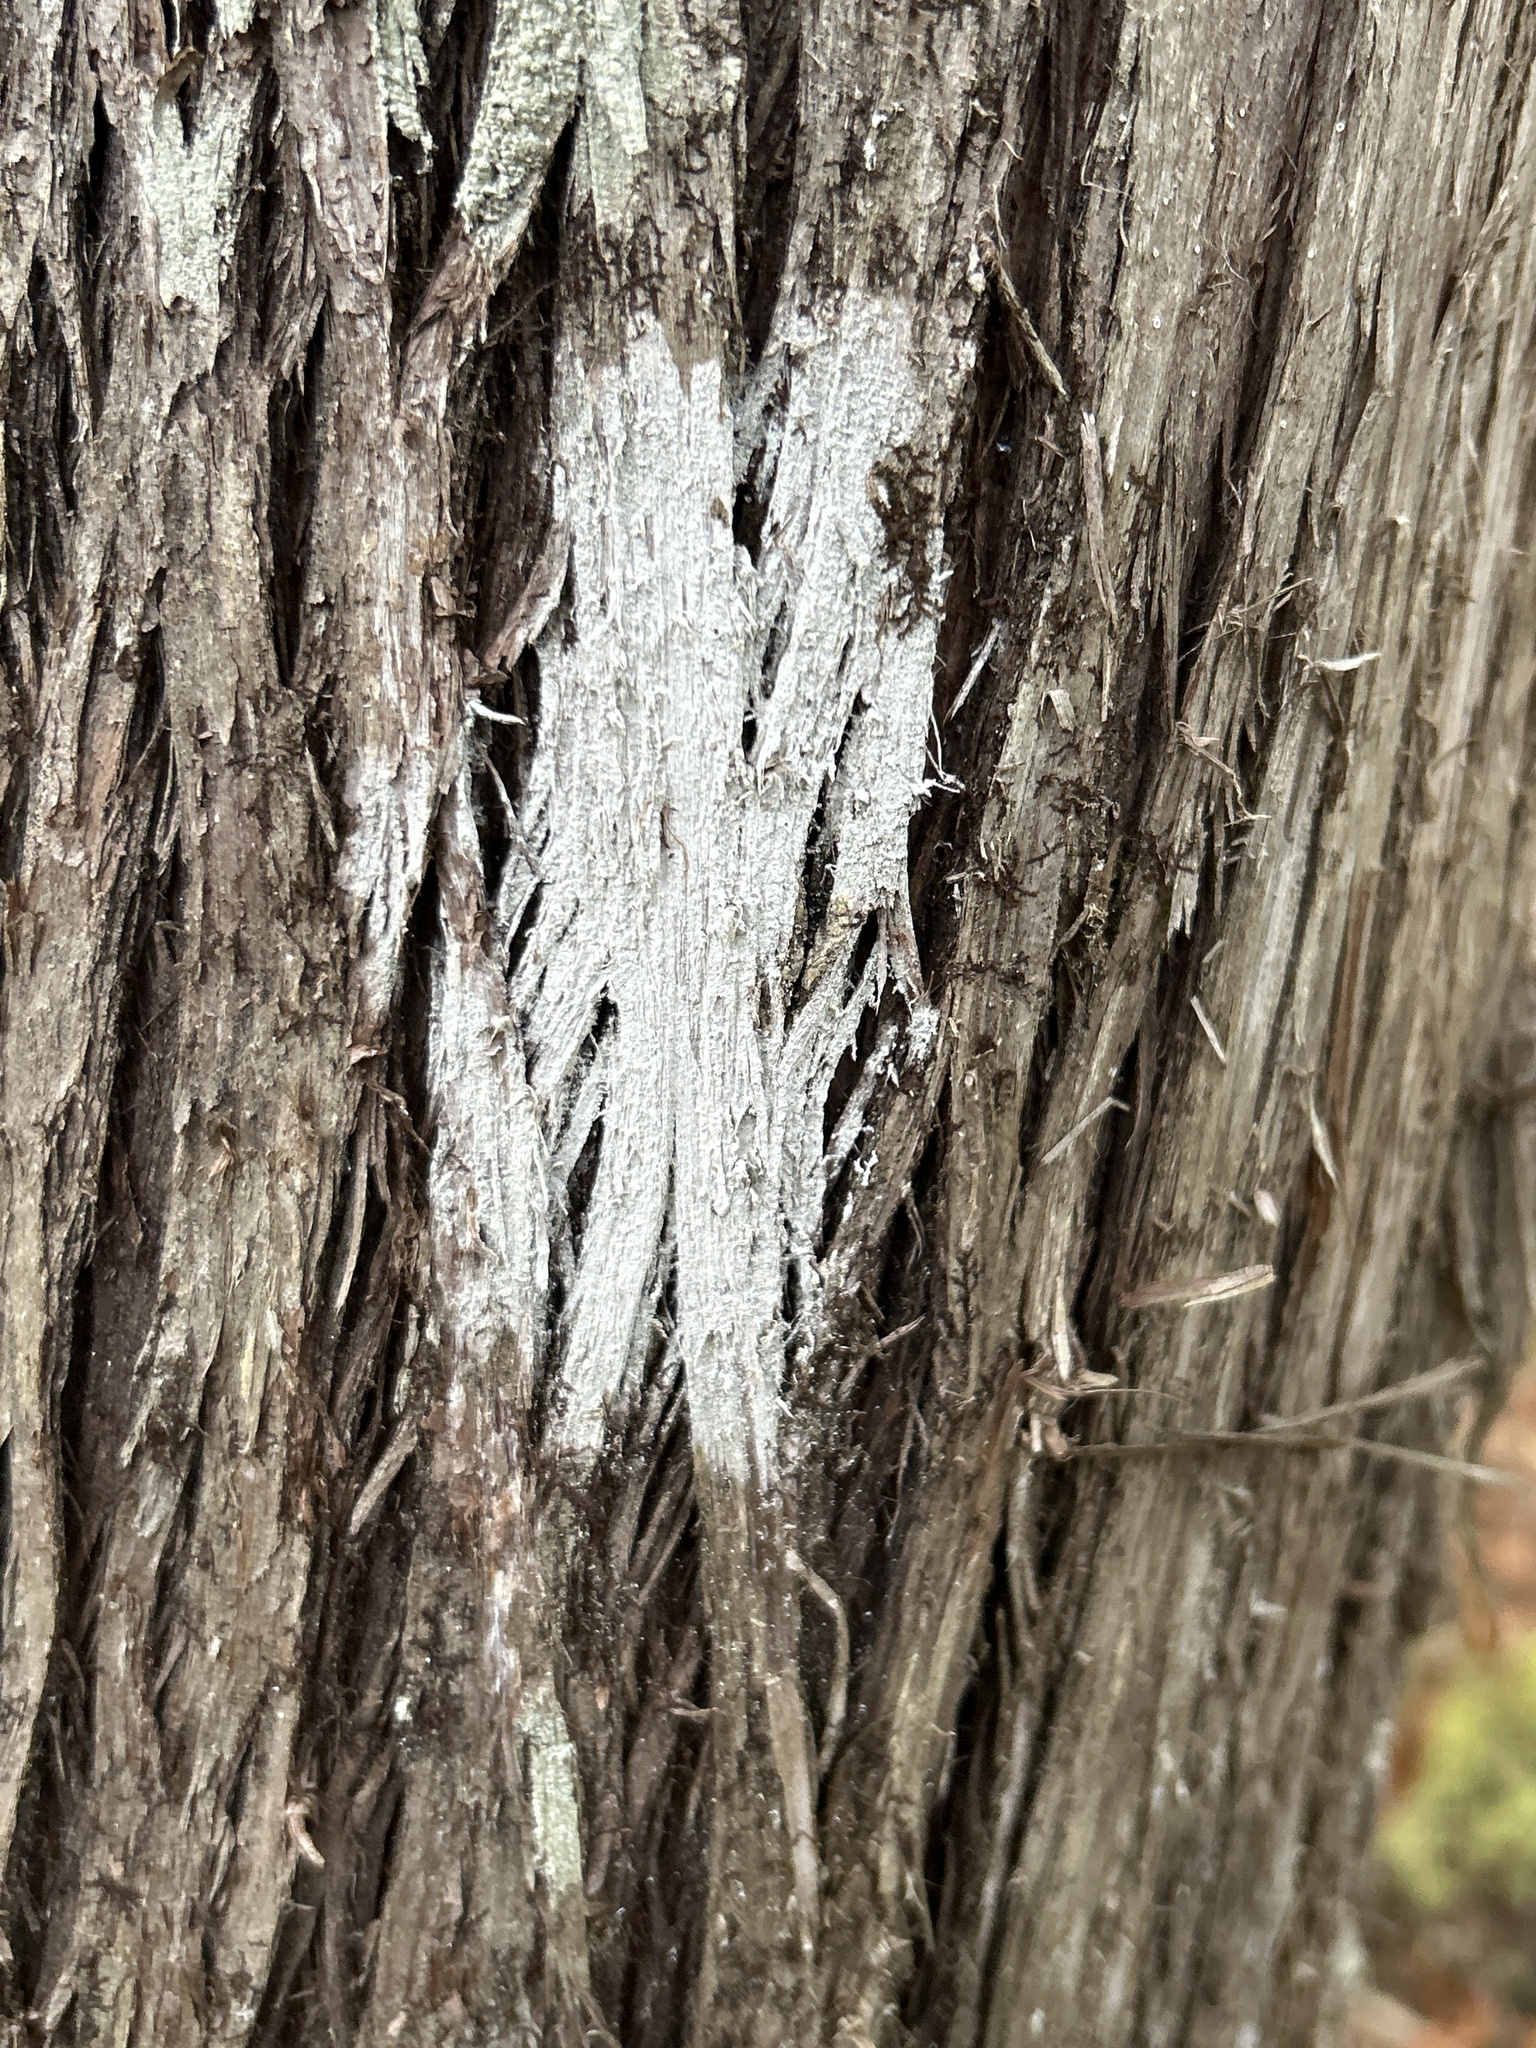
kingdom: Fungi
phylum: Ascomycota
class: Lecanoromycetes
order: Ostropales
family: Phlyctidaceae
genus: Phlyctis
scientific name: Phlyctis argena
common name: Whitewash lichen
